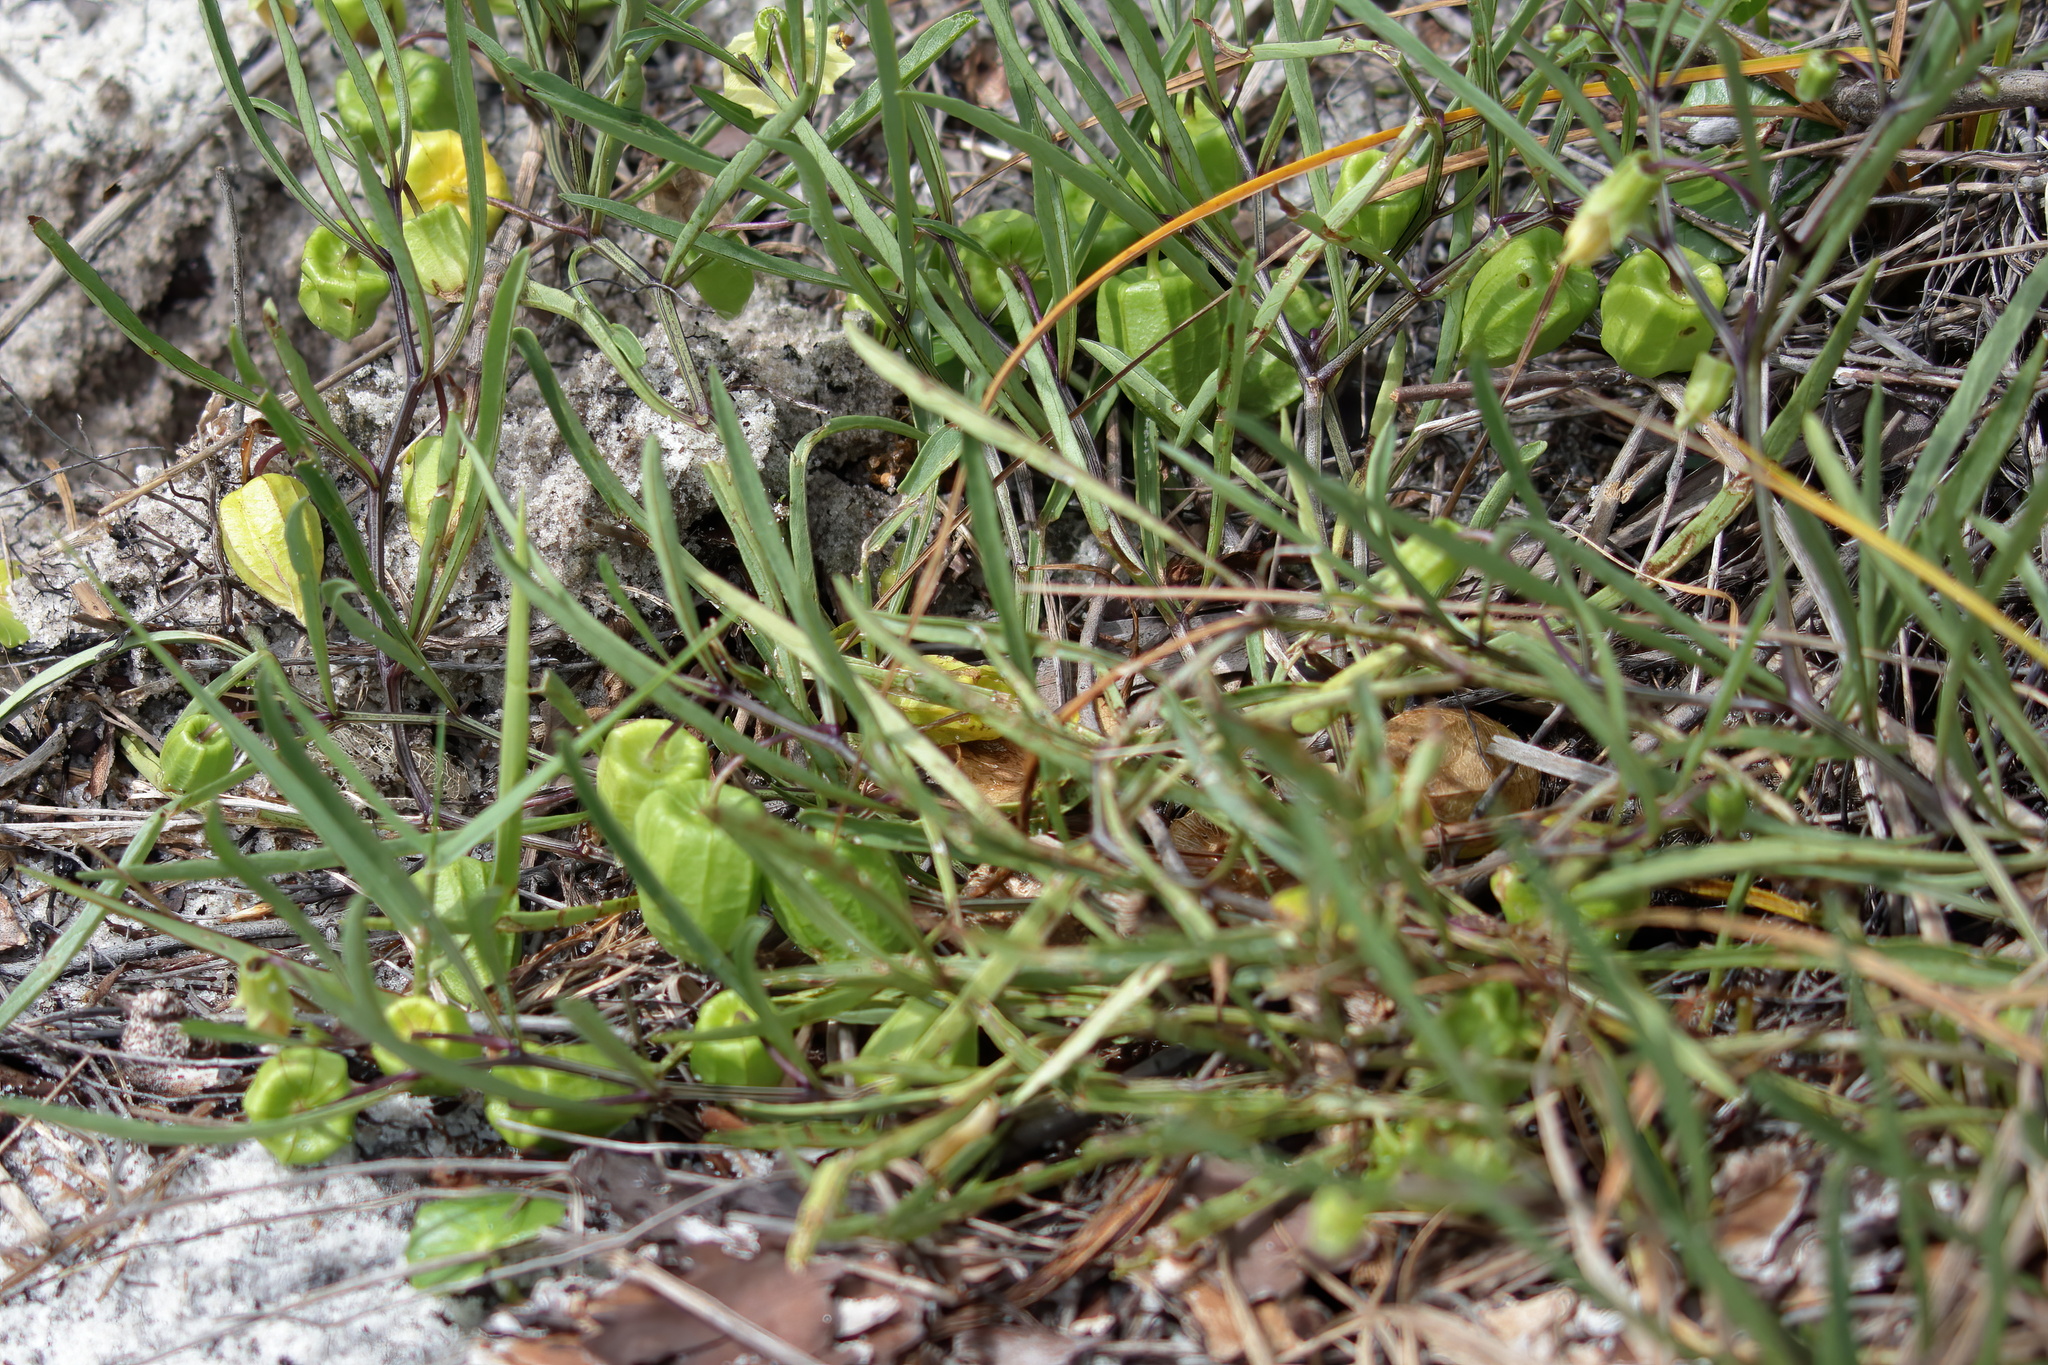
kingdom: Plantae
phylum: Tracheophyta
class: Magnoliopsida
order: Solanales
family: Solanaceae
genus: Physalis
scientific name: Physalis angustifolia
